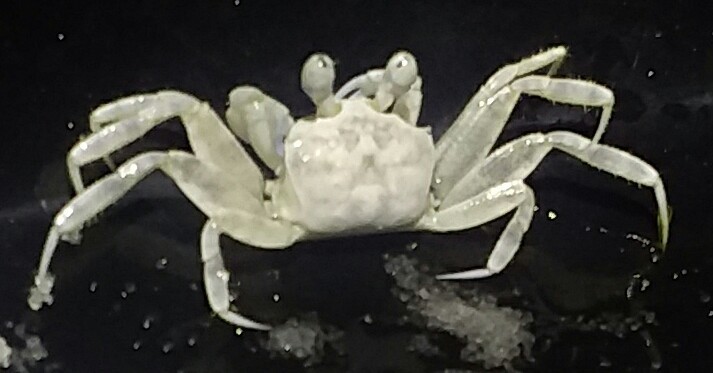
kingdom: Animalia
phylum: Arthropoda
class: Malacostraca
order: Decapoda
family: Ocypodidae
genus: Ocypode
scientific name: Ocypode quadrata
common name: Ghost crab
